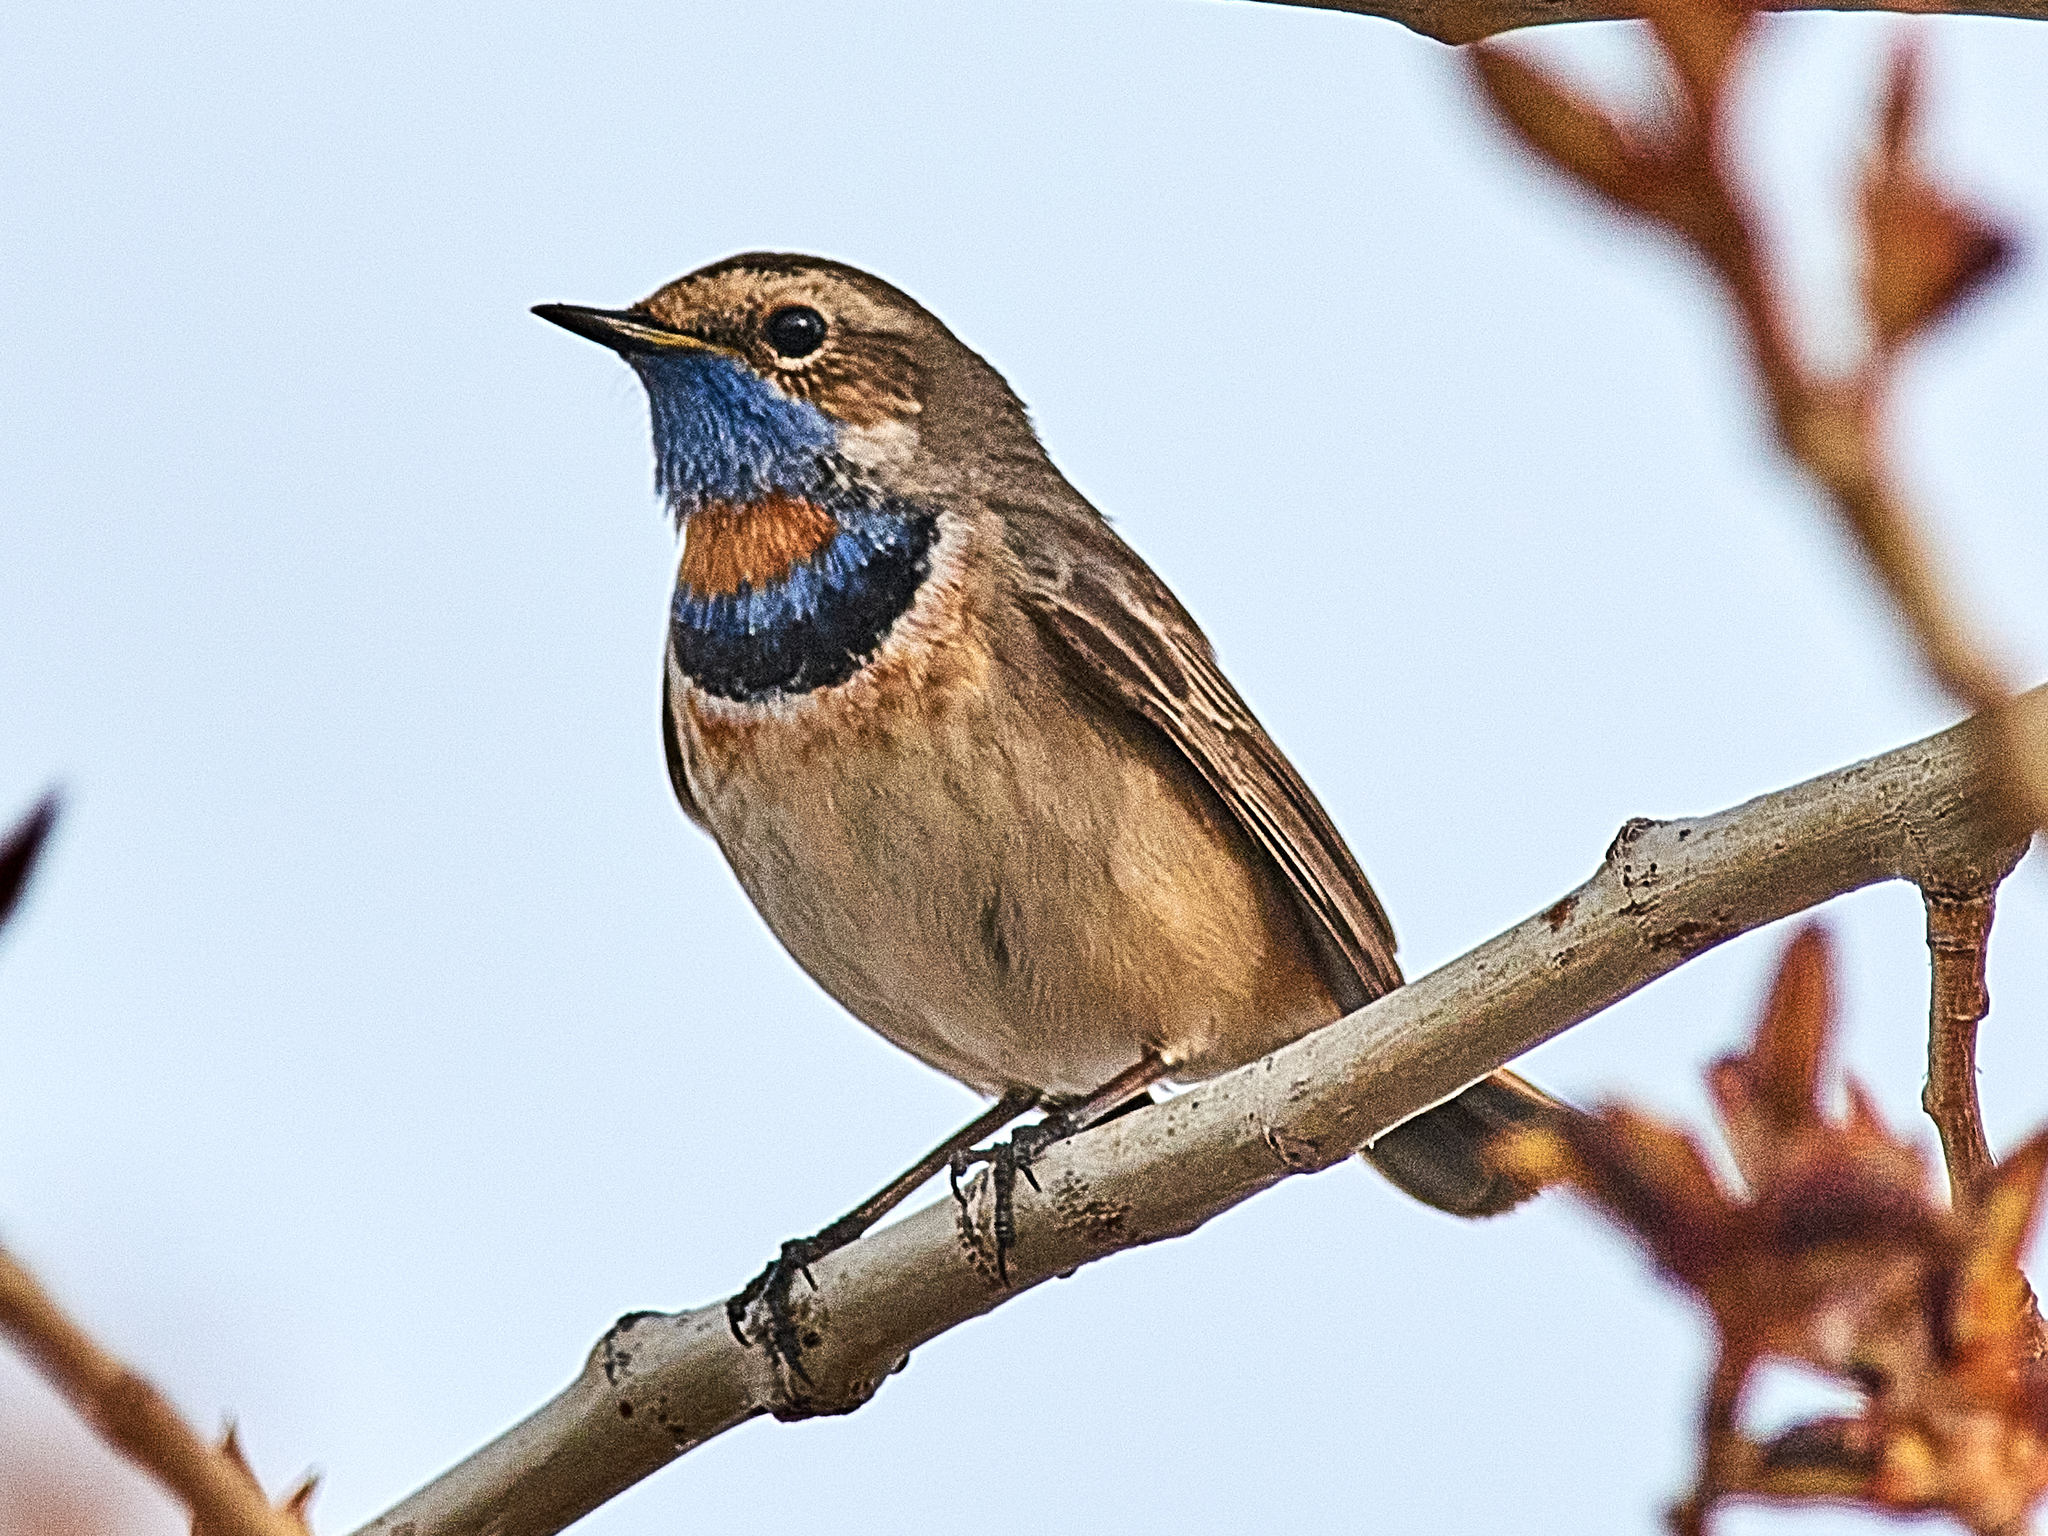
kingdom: Animalia
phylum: Chordata
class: Aves
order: Passeriformes
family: Muscicapidae
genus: Luscinia
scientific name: Luscinia svecica
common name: Bluethroat
